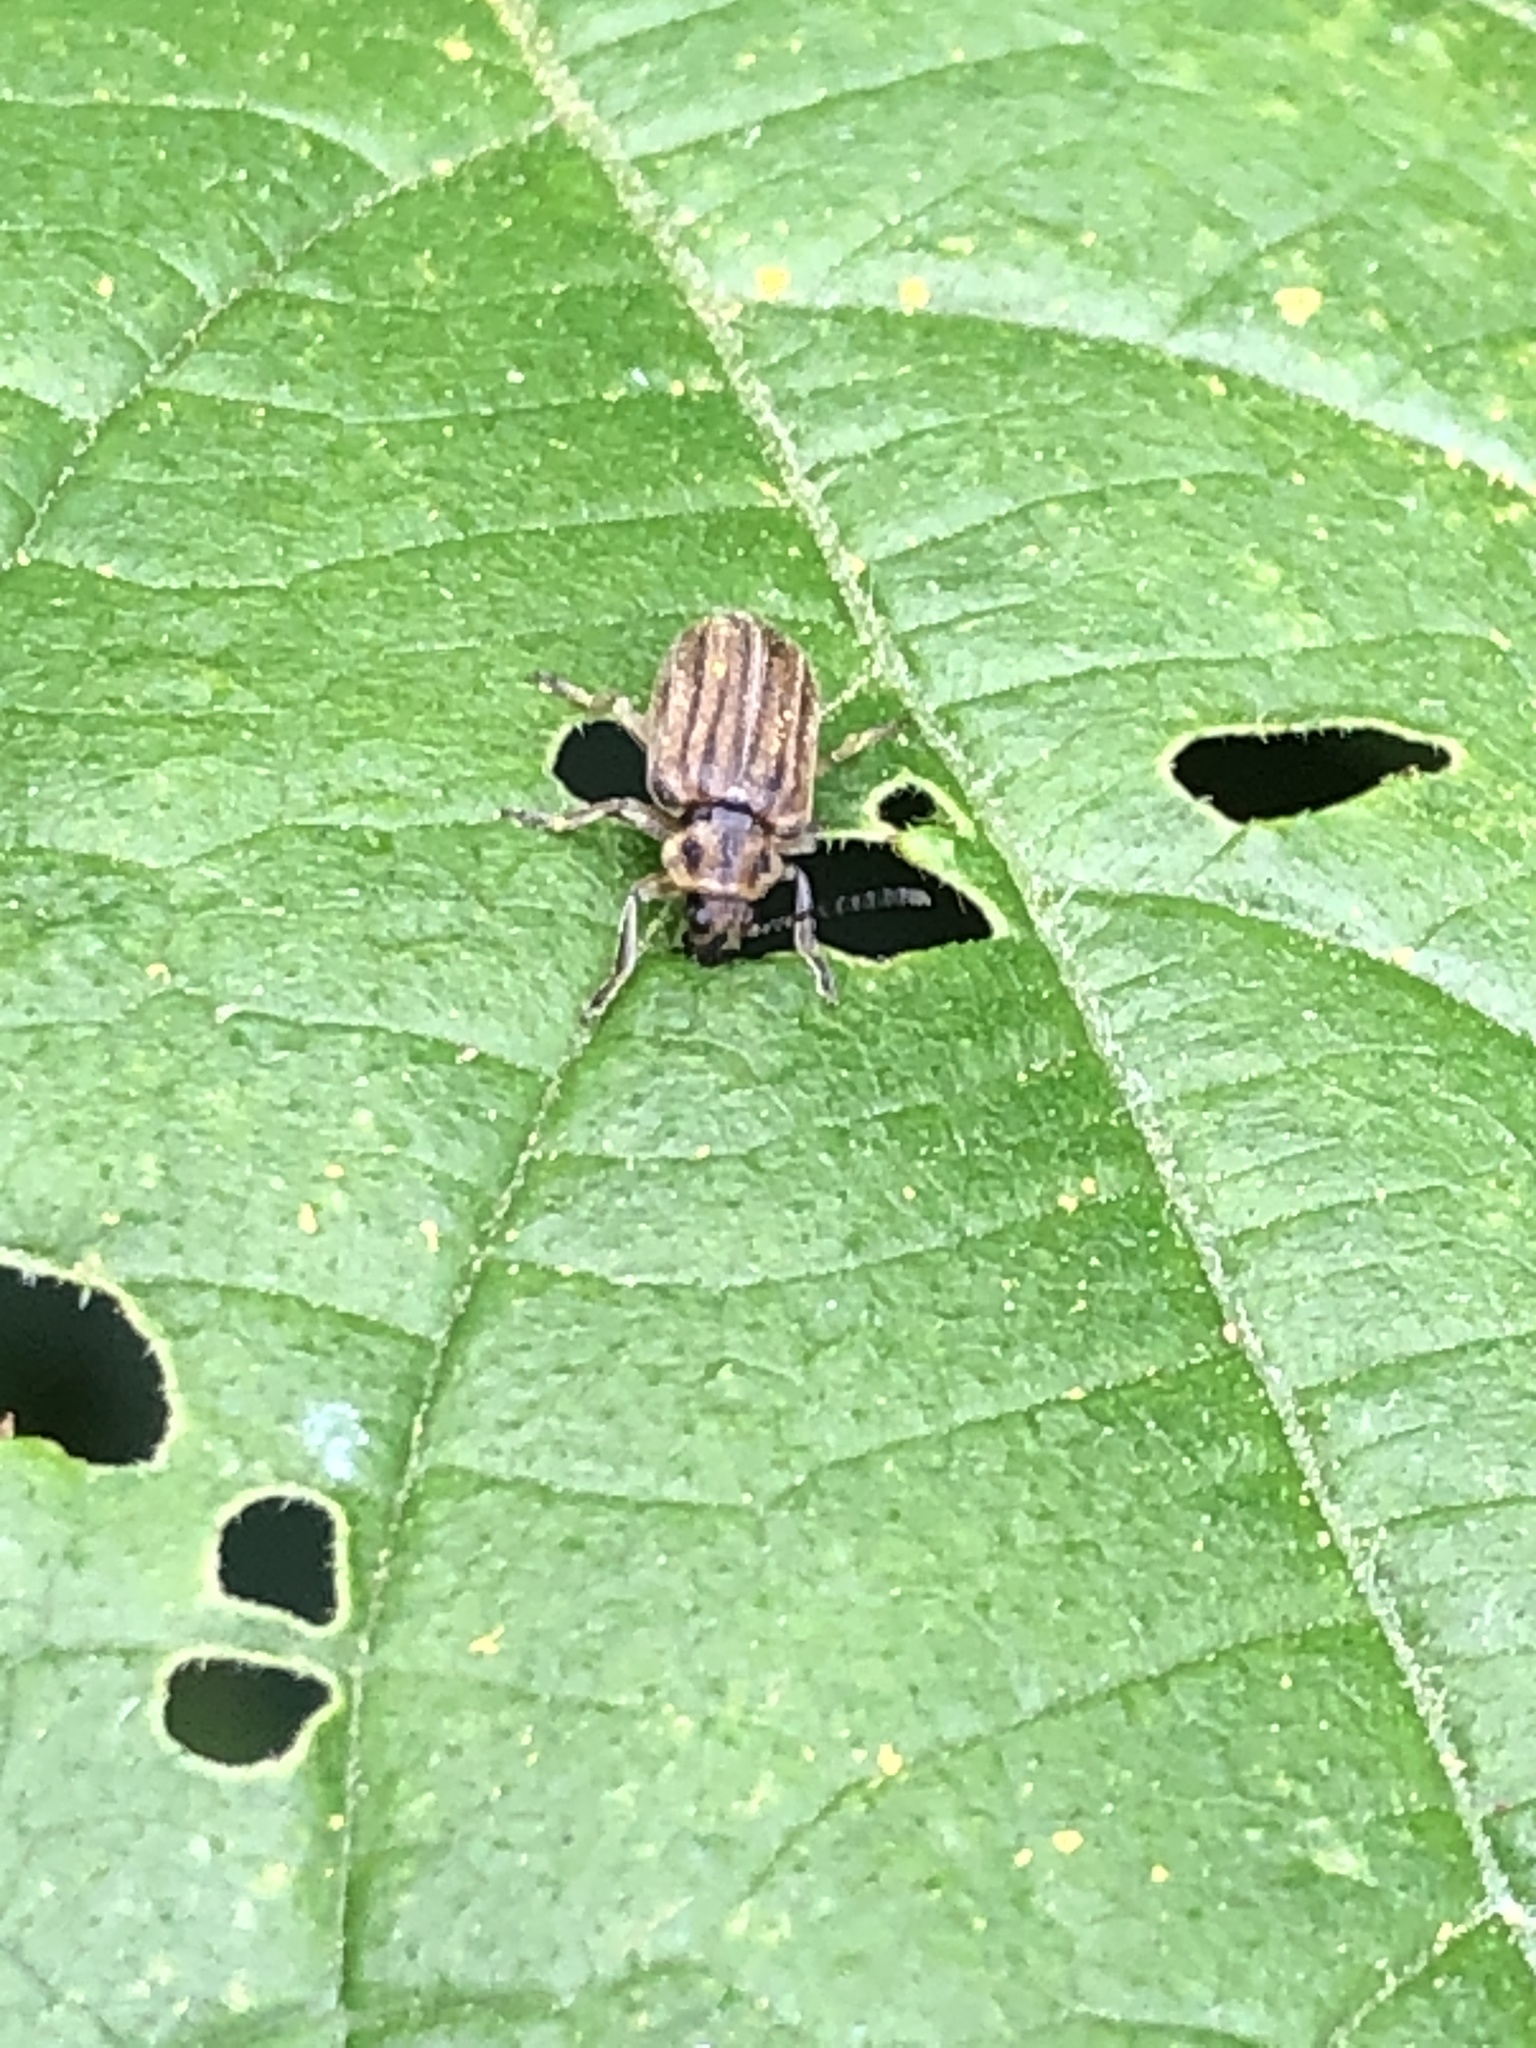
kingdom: Animalia
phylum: Arthropoda
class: Insecta
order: Coleoptera
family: Chrysomelidae
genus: Ophraella
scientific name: Ophraella communa
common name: Ragweed leaf beetle
